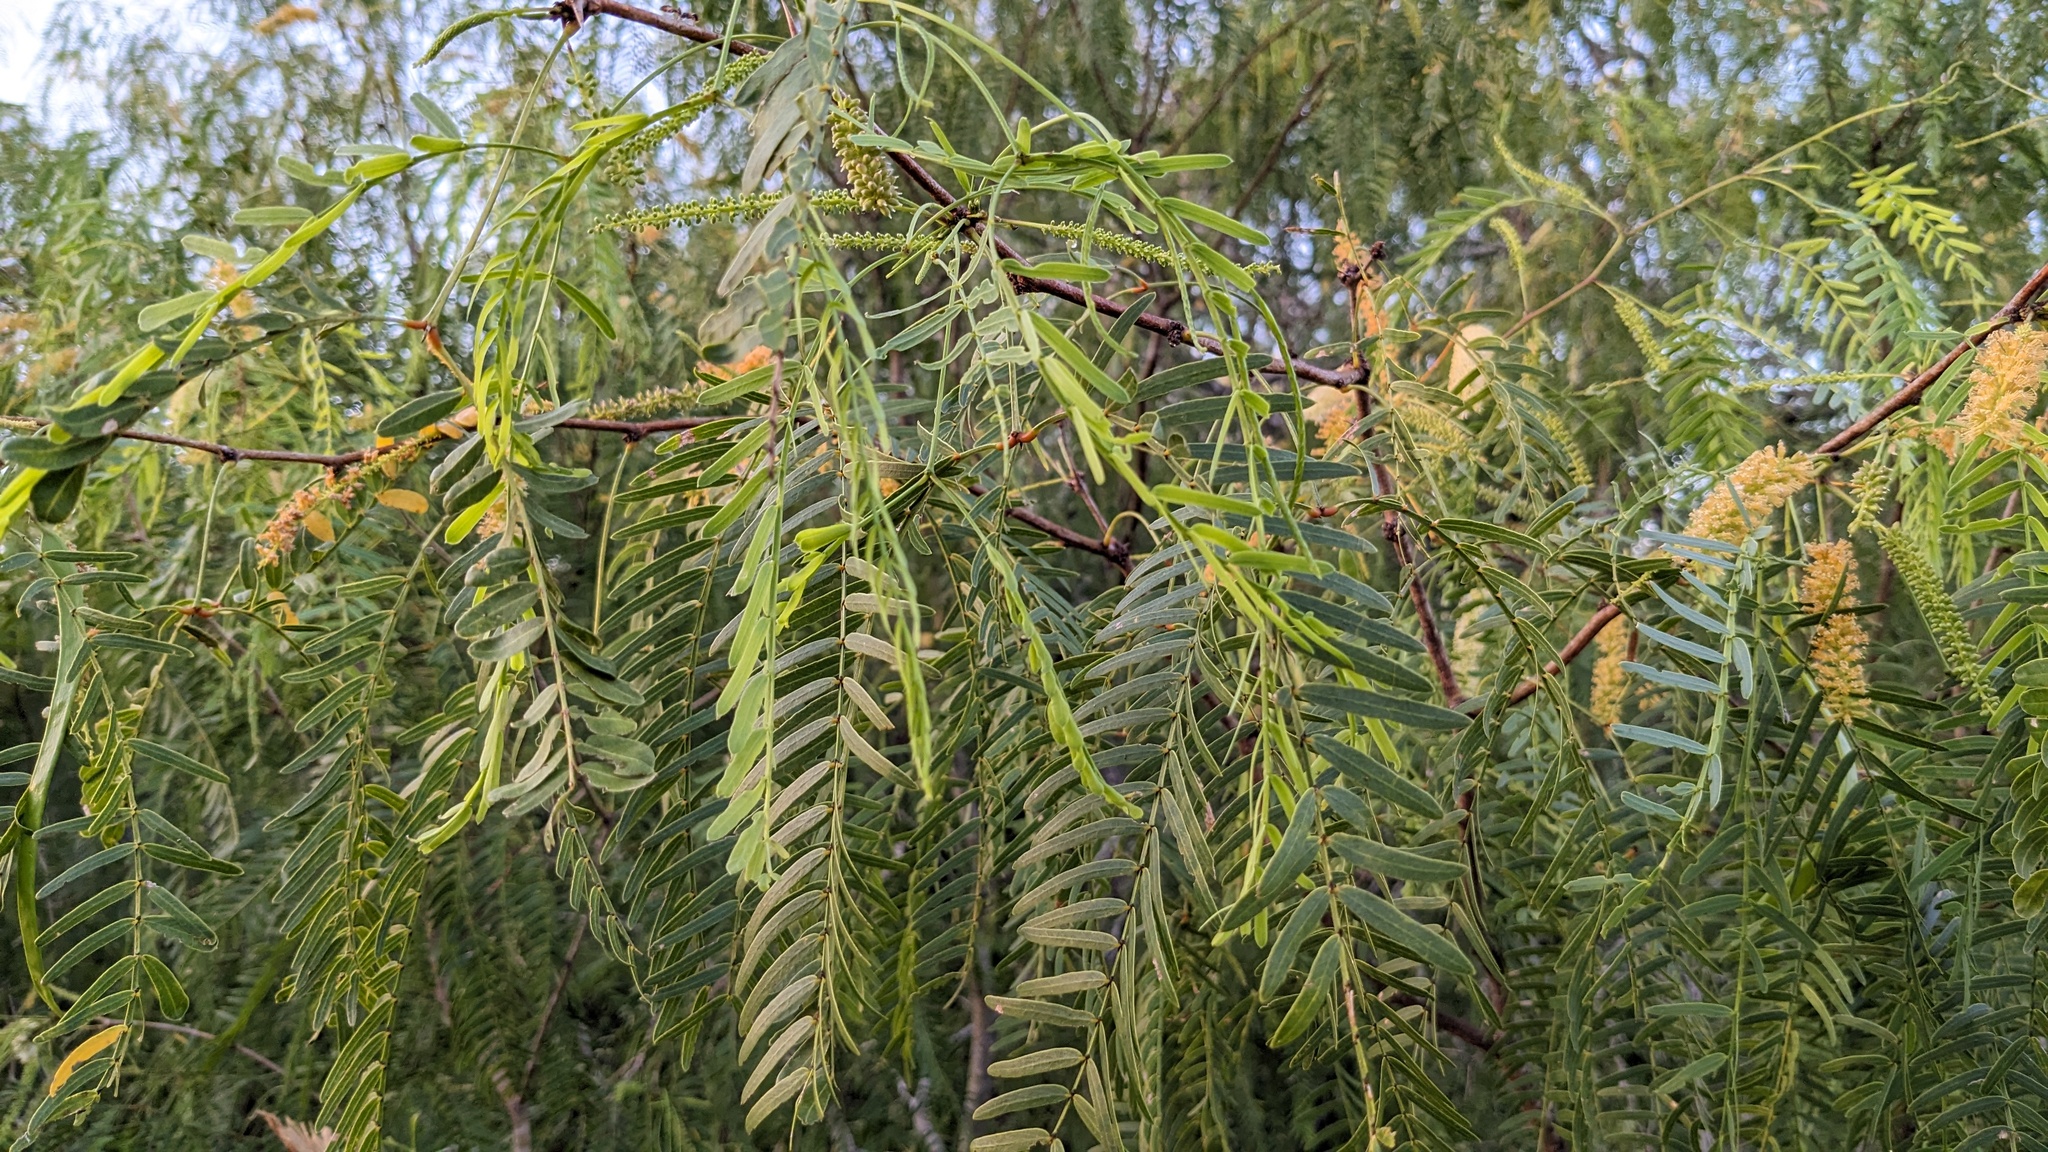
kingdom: Plantae
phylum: Tracheophyta
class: Magnoliopsida
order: Fabales
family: Fabaceae
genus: Prosopis
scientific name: Prosopis glandulosa
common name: Honey mesquite
